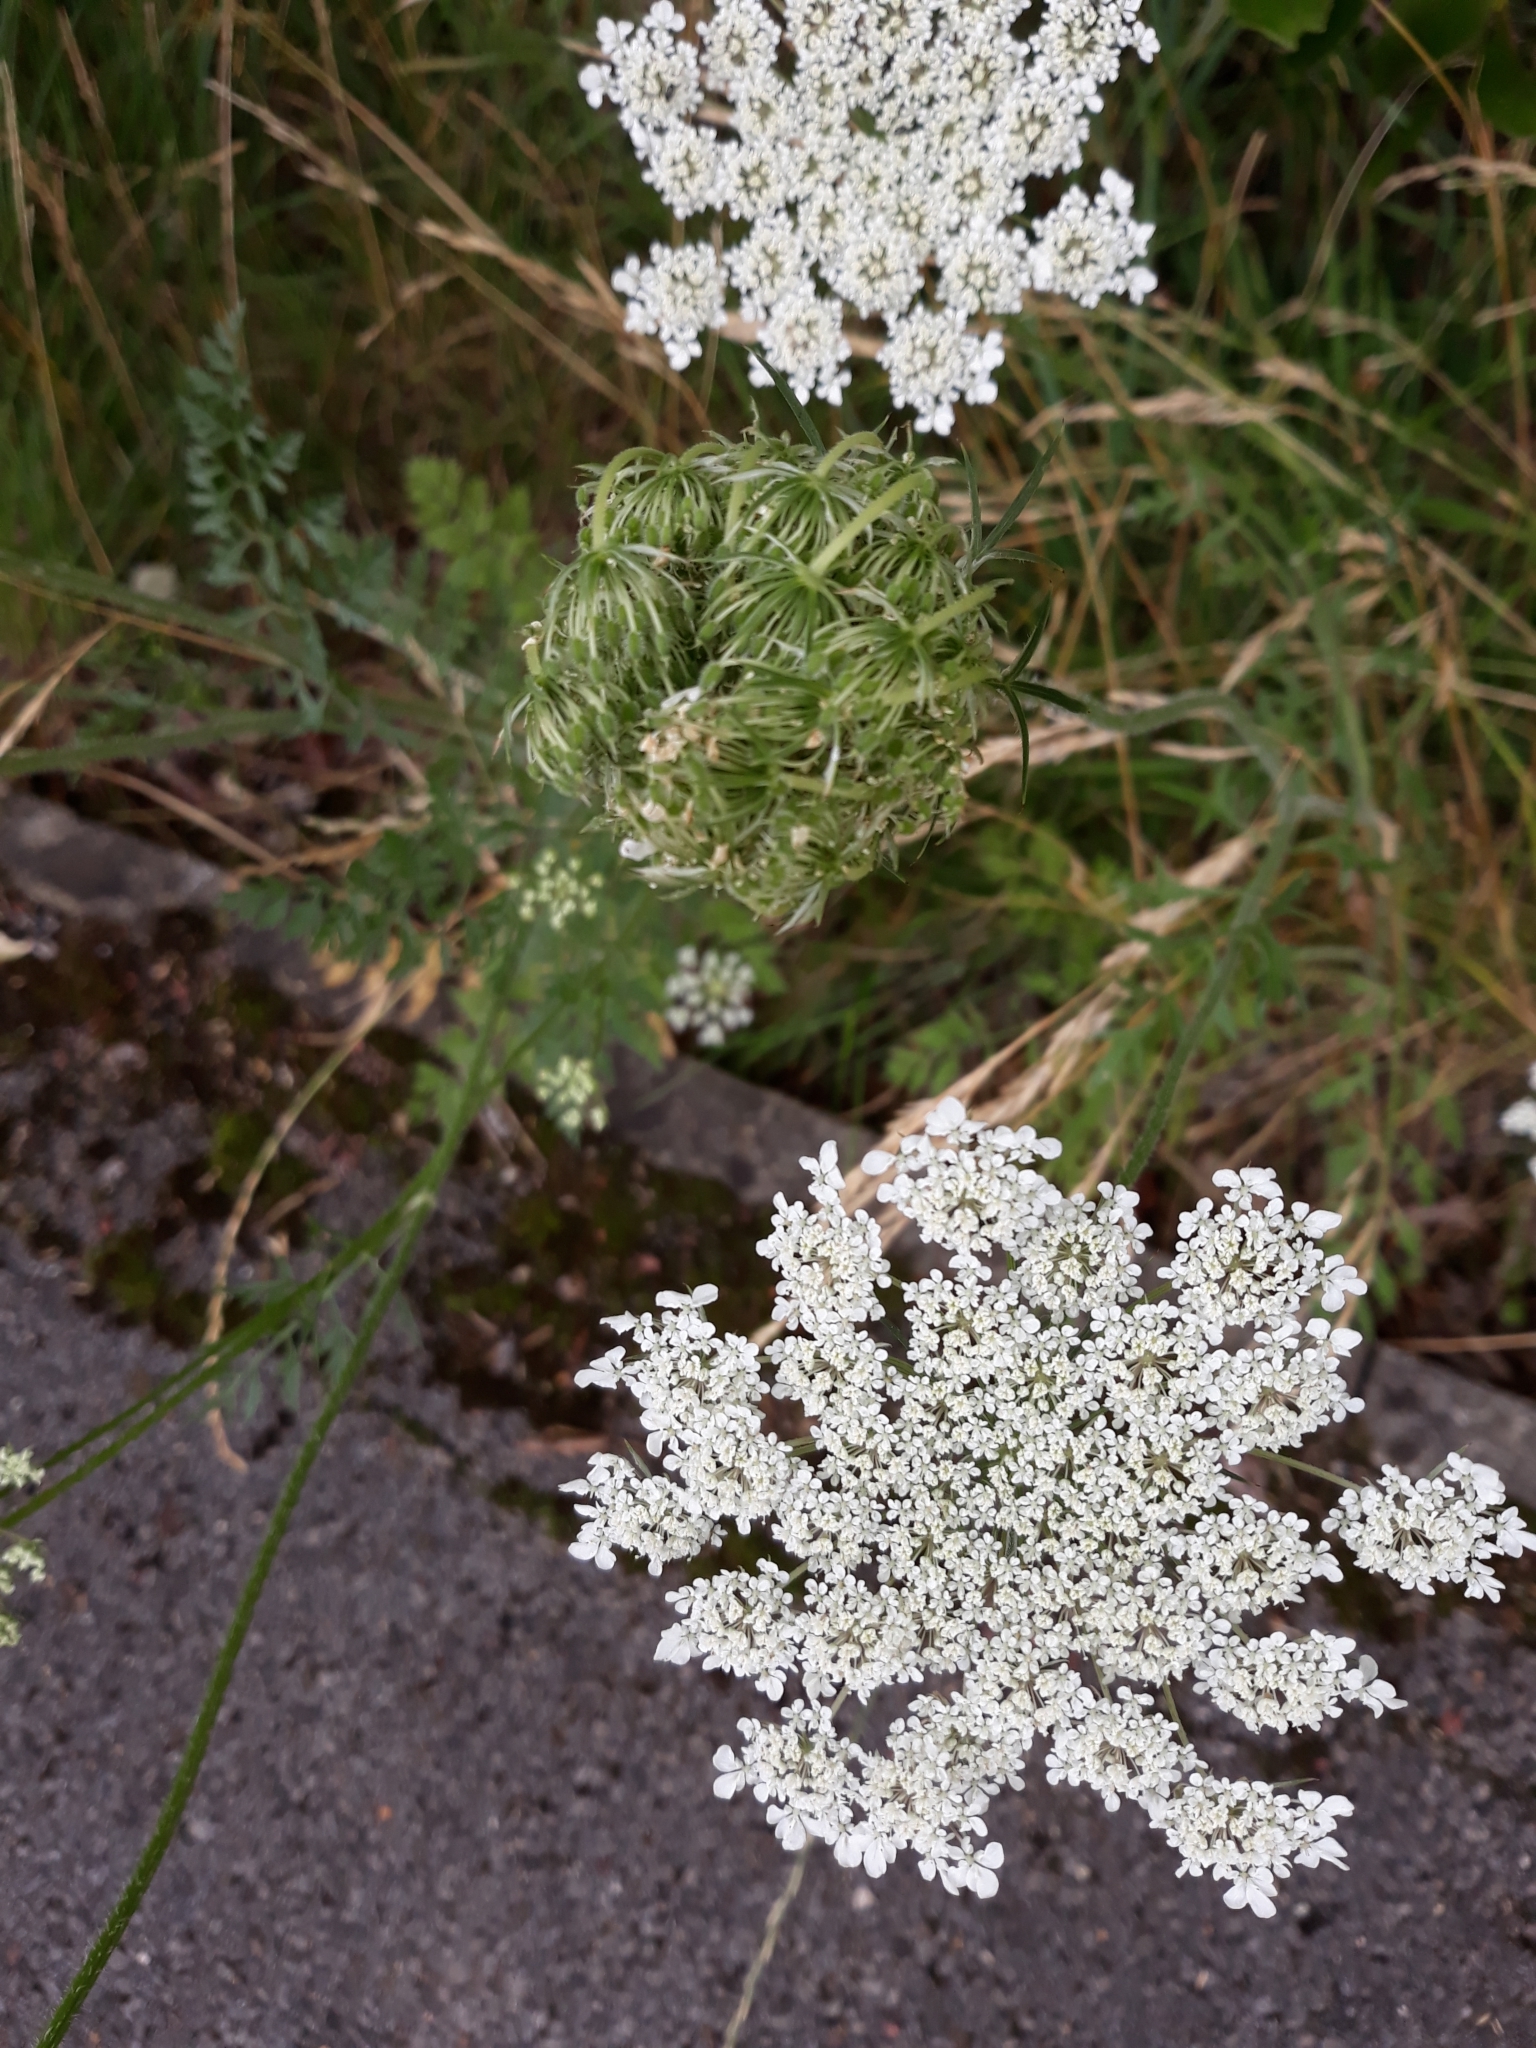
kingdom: Plantae
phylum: Tracheophyta
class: Magnoliopsida
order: Apiales
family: Apiaceae
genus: Daucus
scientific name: Daucus carota
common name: Wild carrot
